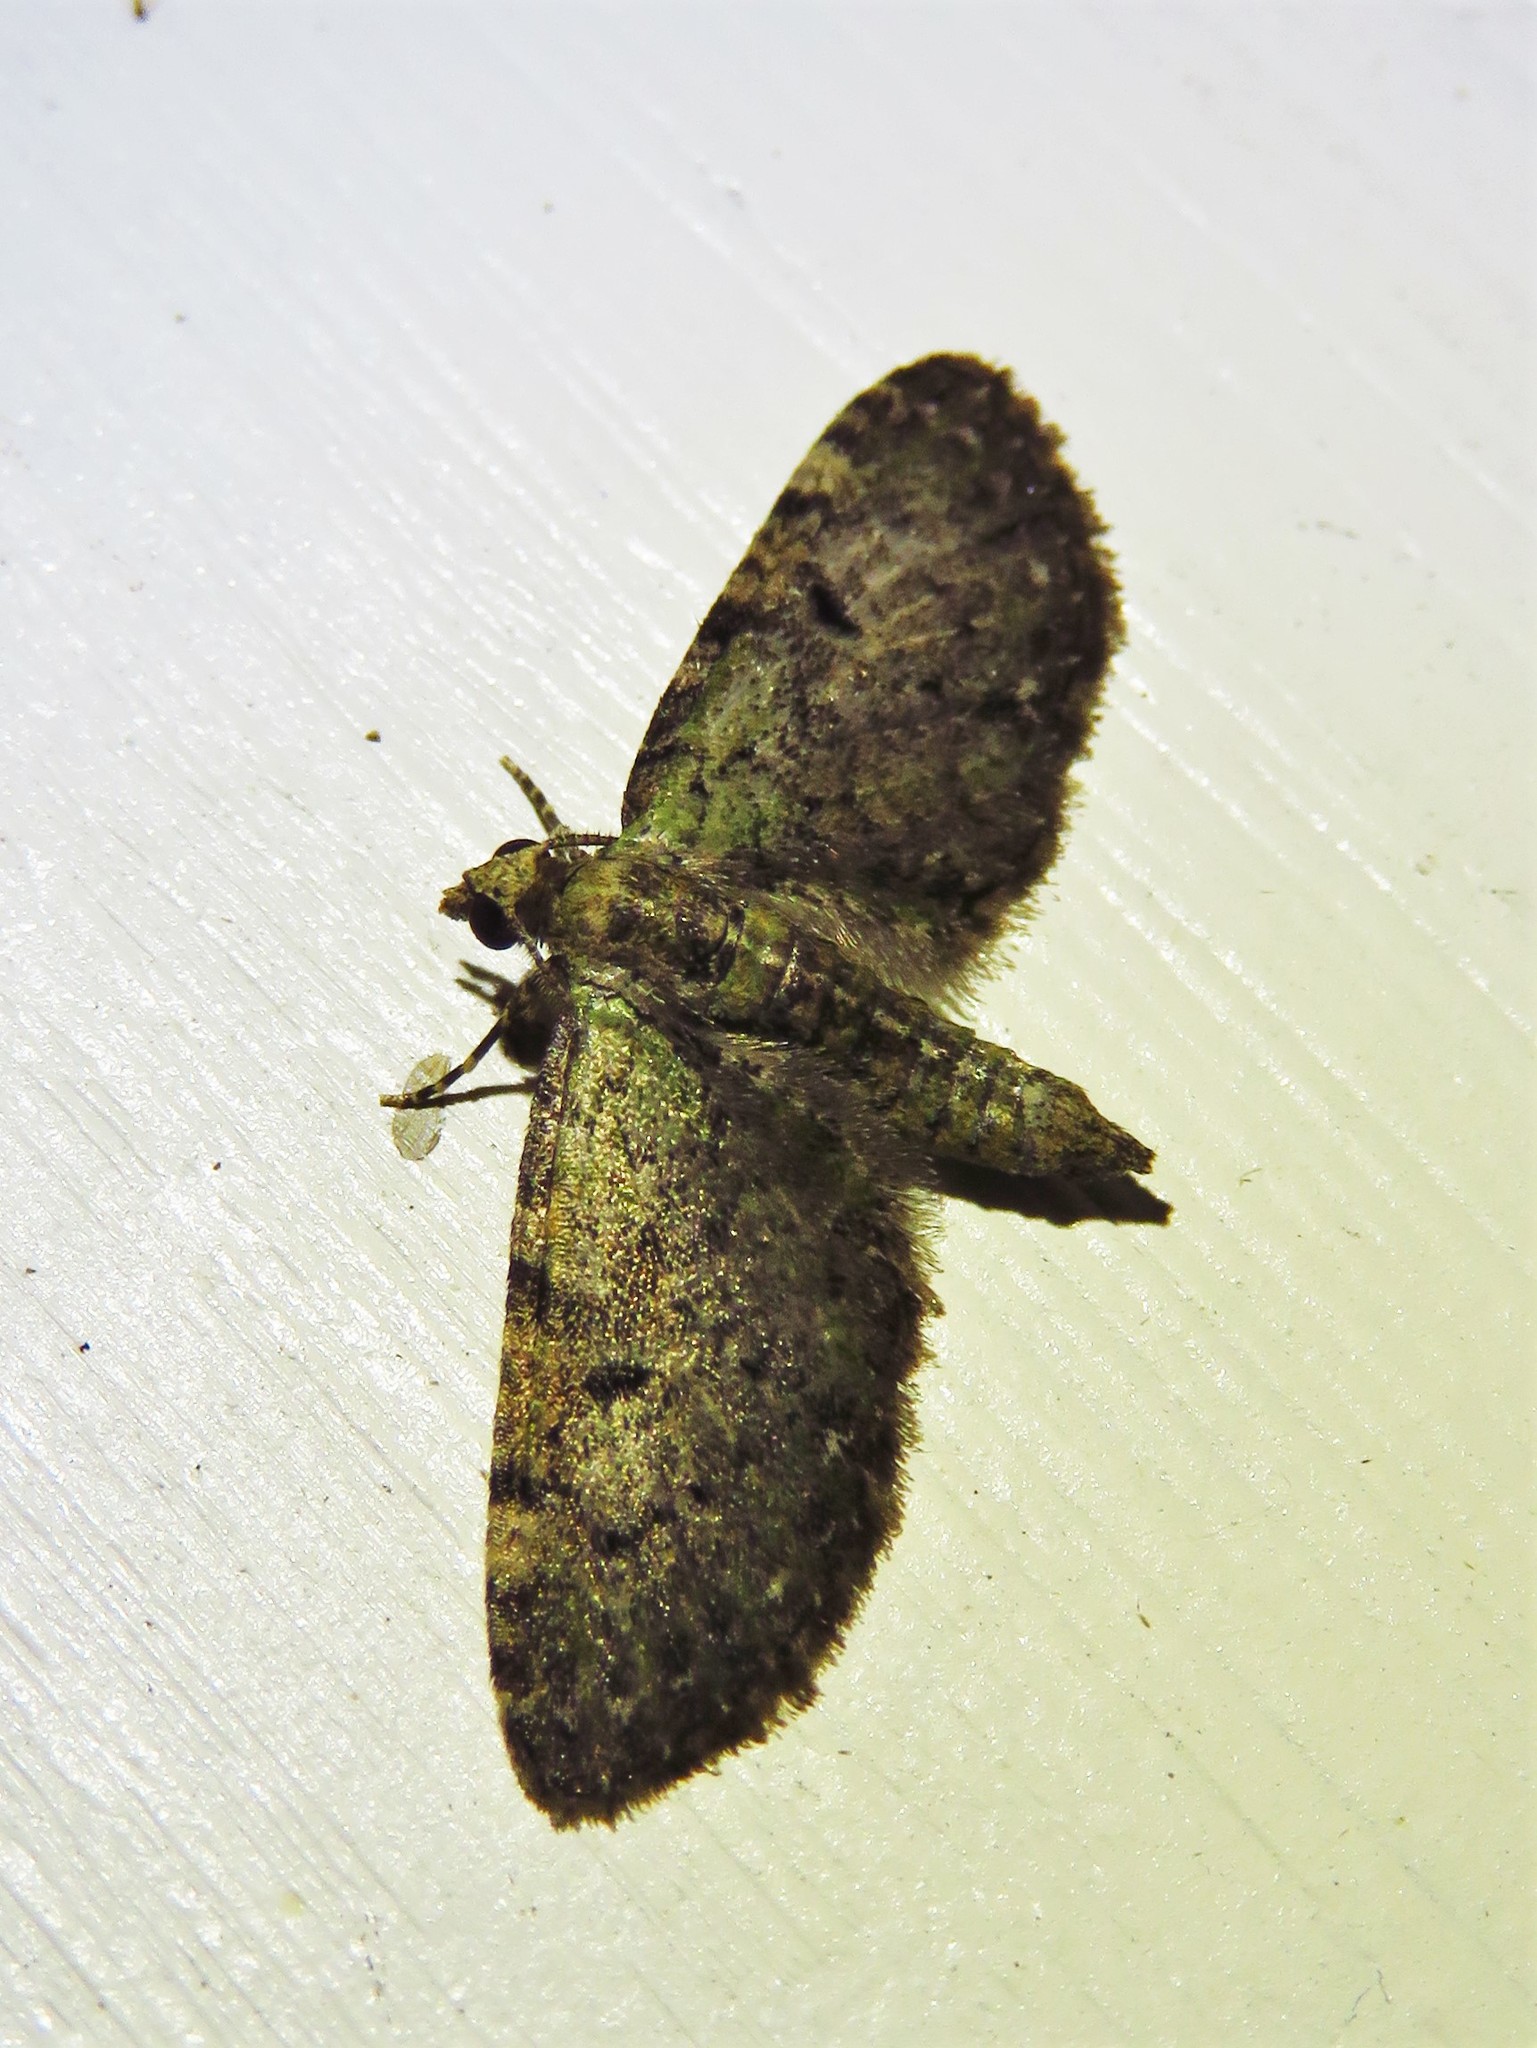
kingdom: Animalia
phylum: Arthropoda
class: Insecta
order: Lepidoptera
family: Geometridae
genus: Eupithecia
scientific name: Eupithecia miserulata
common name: Common eupithecia
